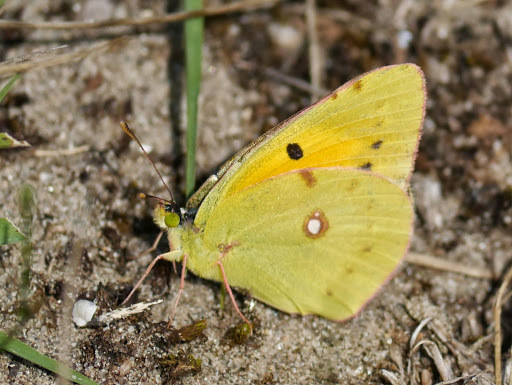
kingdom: Animalia
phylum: Arthropoda
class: Insecta
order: Lepidoptera
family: Pieridae
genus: Colias
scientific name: Colias croceus
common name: Clouded yellow
